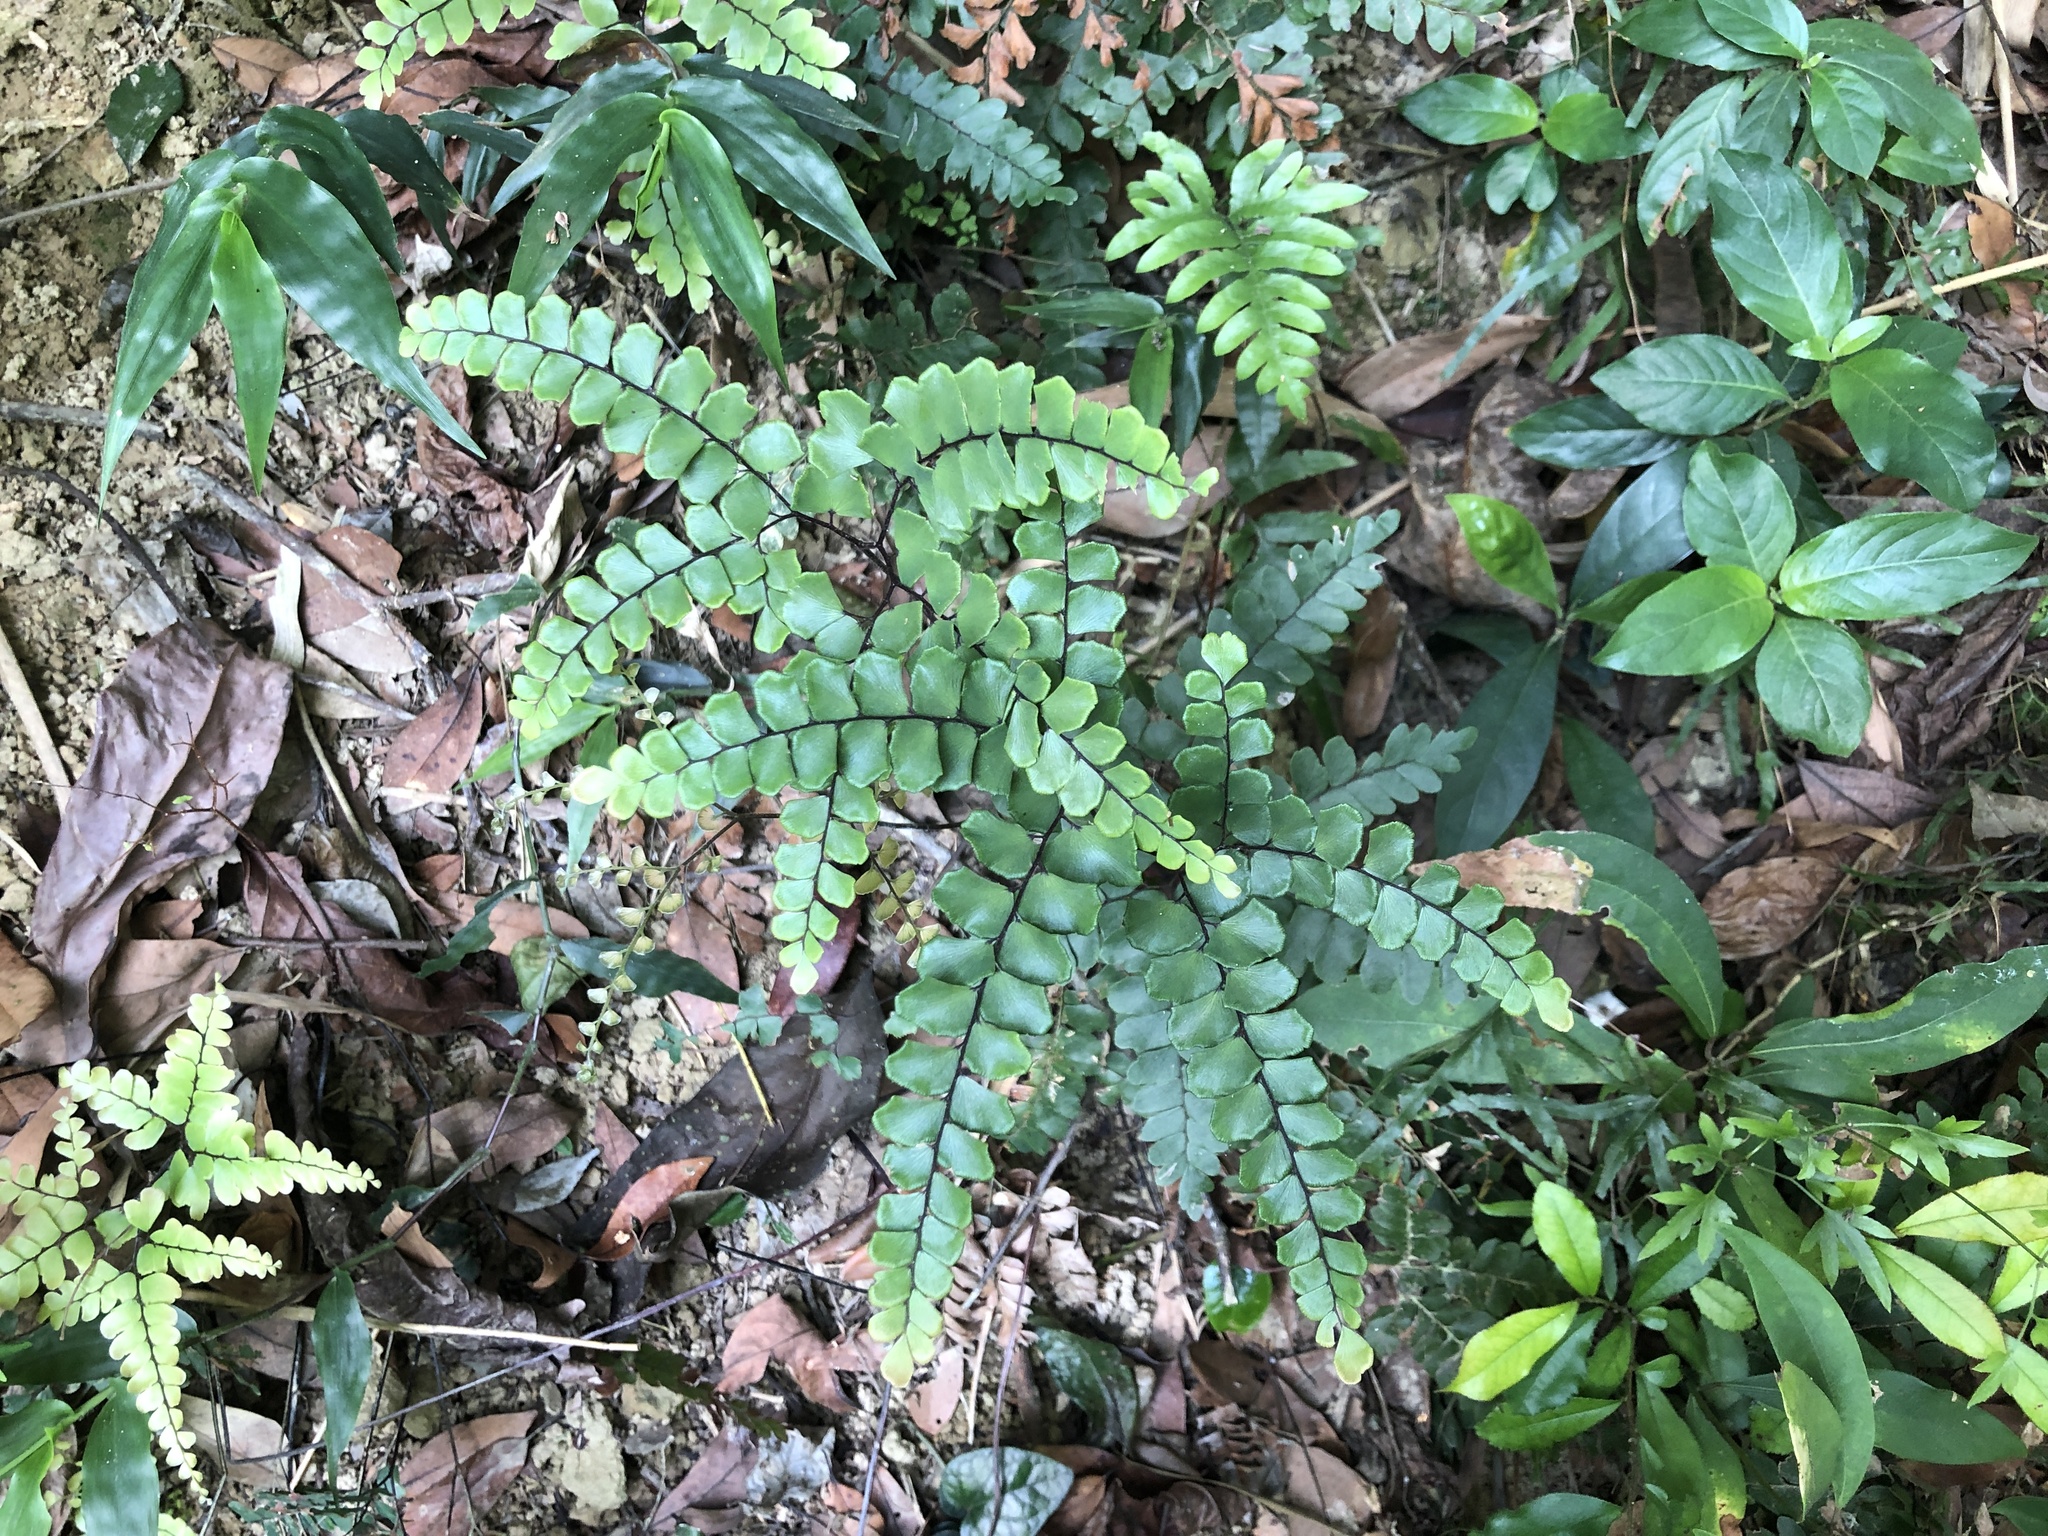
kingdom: Plantae
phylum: Tracheophyta
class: Polypodiopsida
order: Polypodiales
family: Pteridaceae
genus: Adiantum
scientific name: Adiantum flabellulatum
